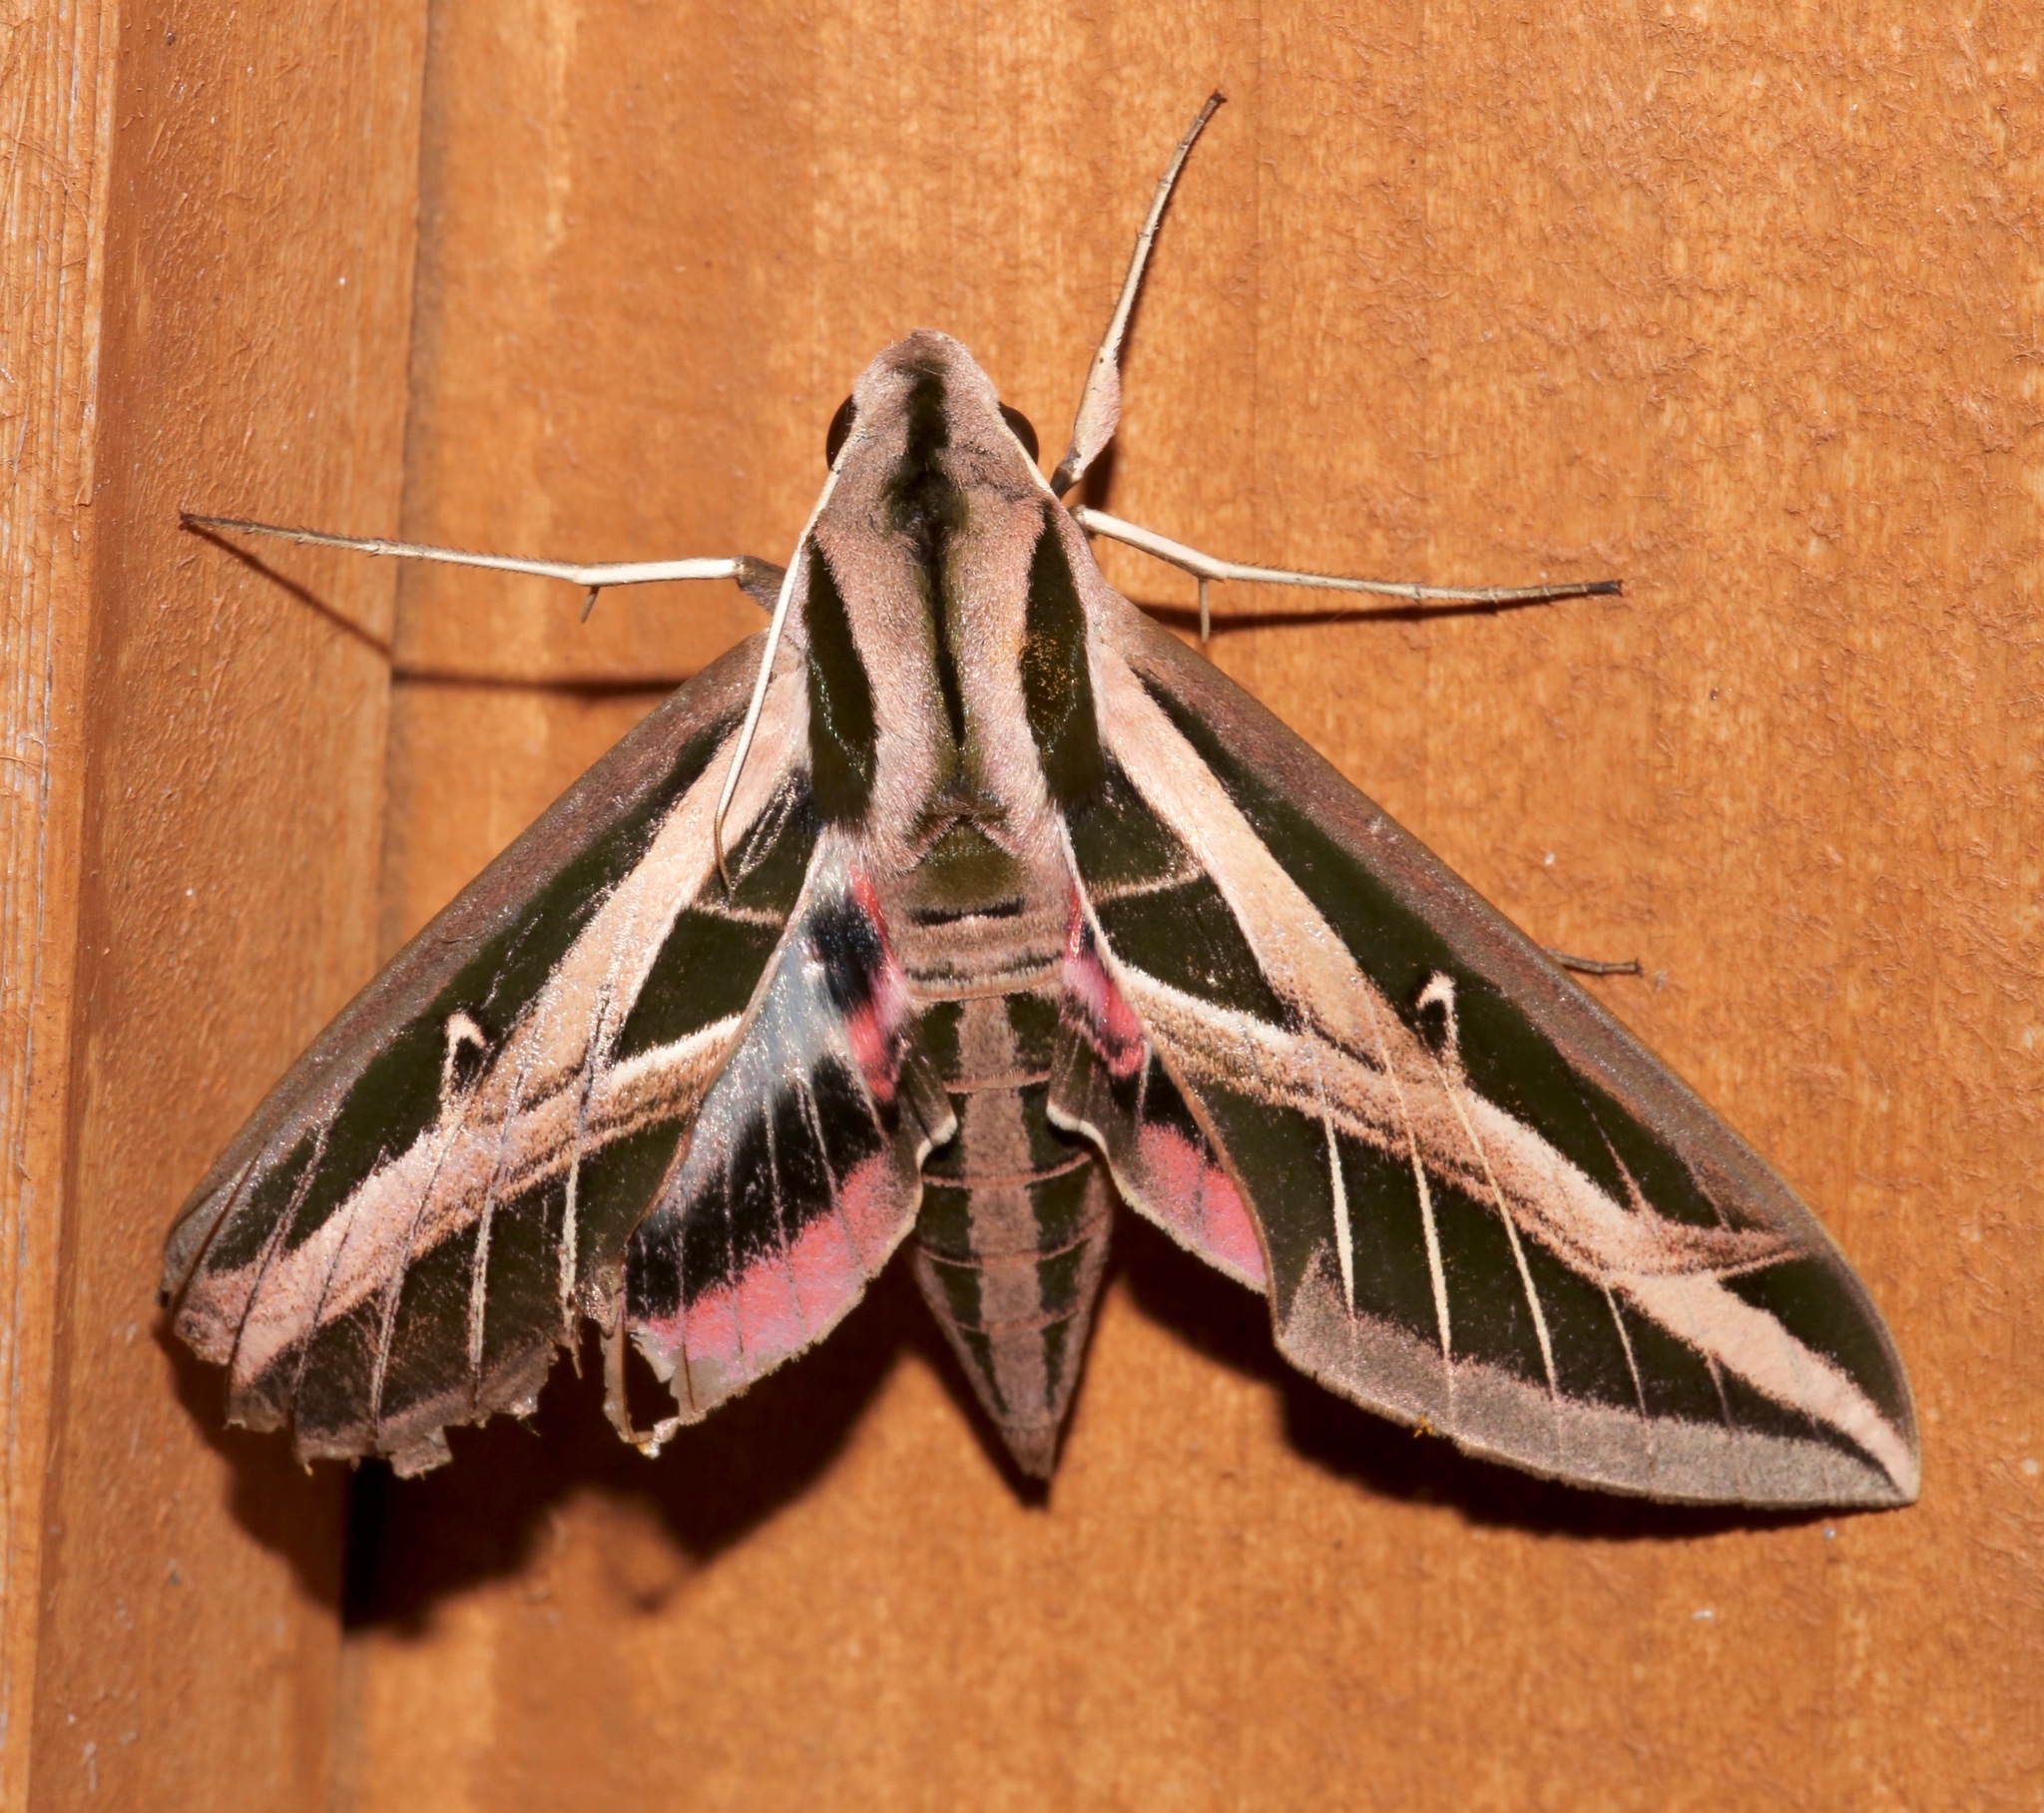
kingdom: Animalia
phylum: Arthropoda
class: Insecta
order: Lepidoptera
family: Sphingidae
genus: Eumorpha
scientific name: Eumorpha fasciatus
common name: Banded sphinx
